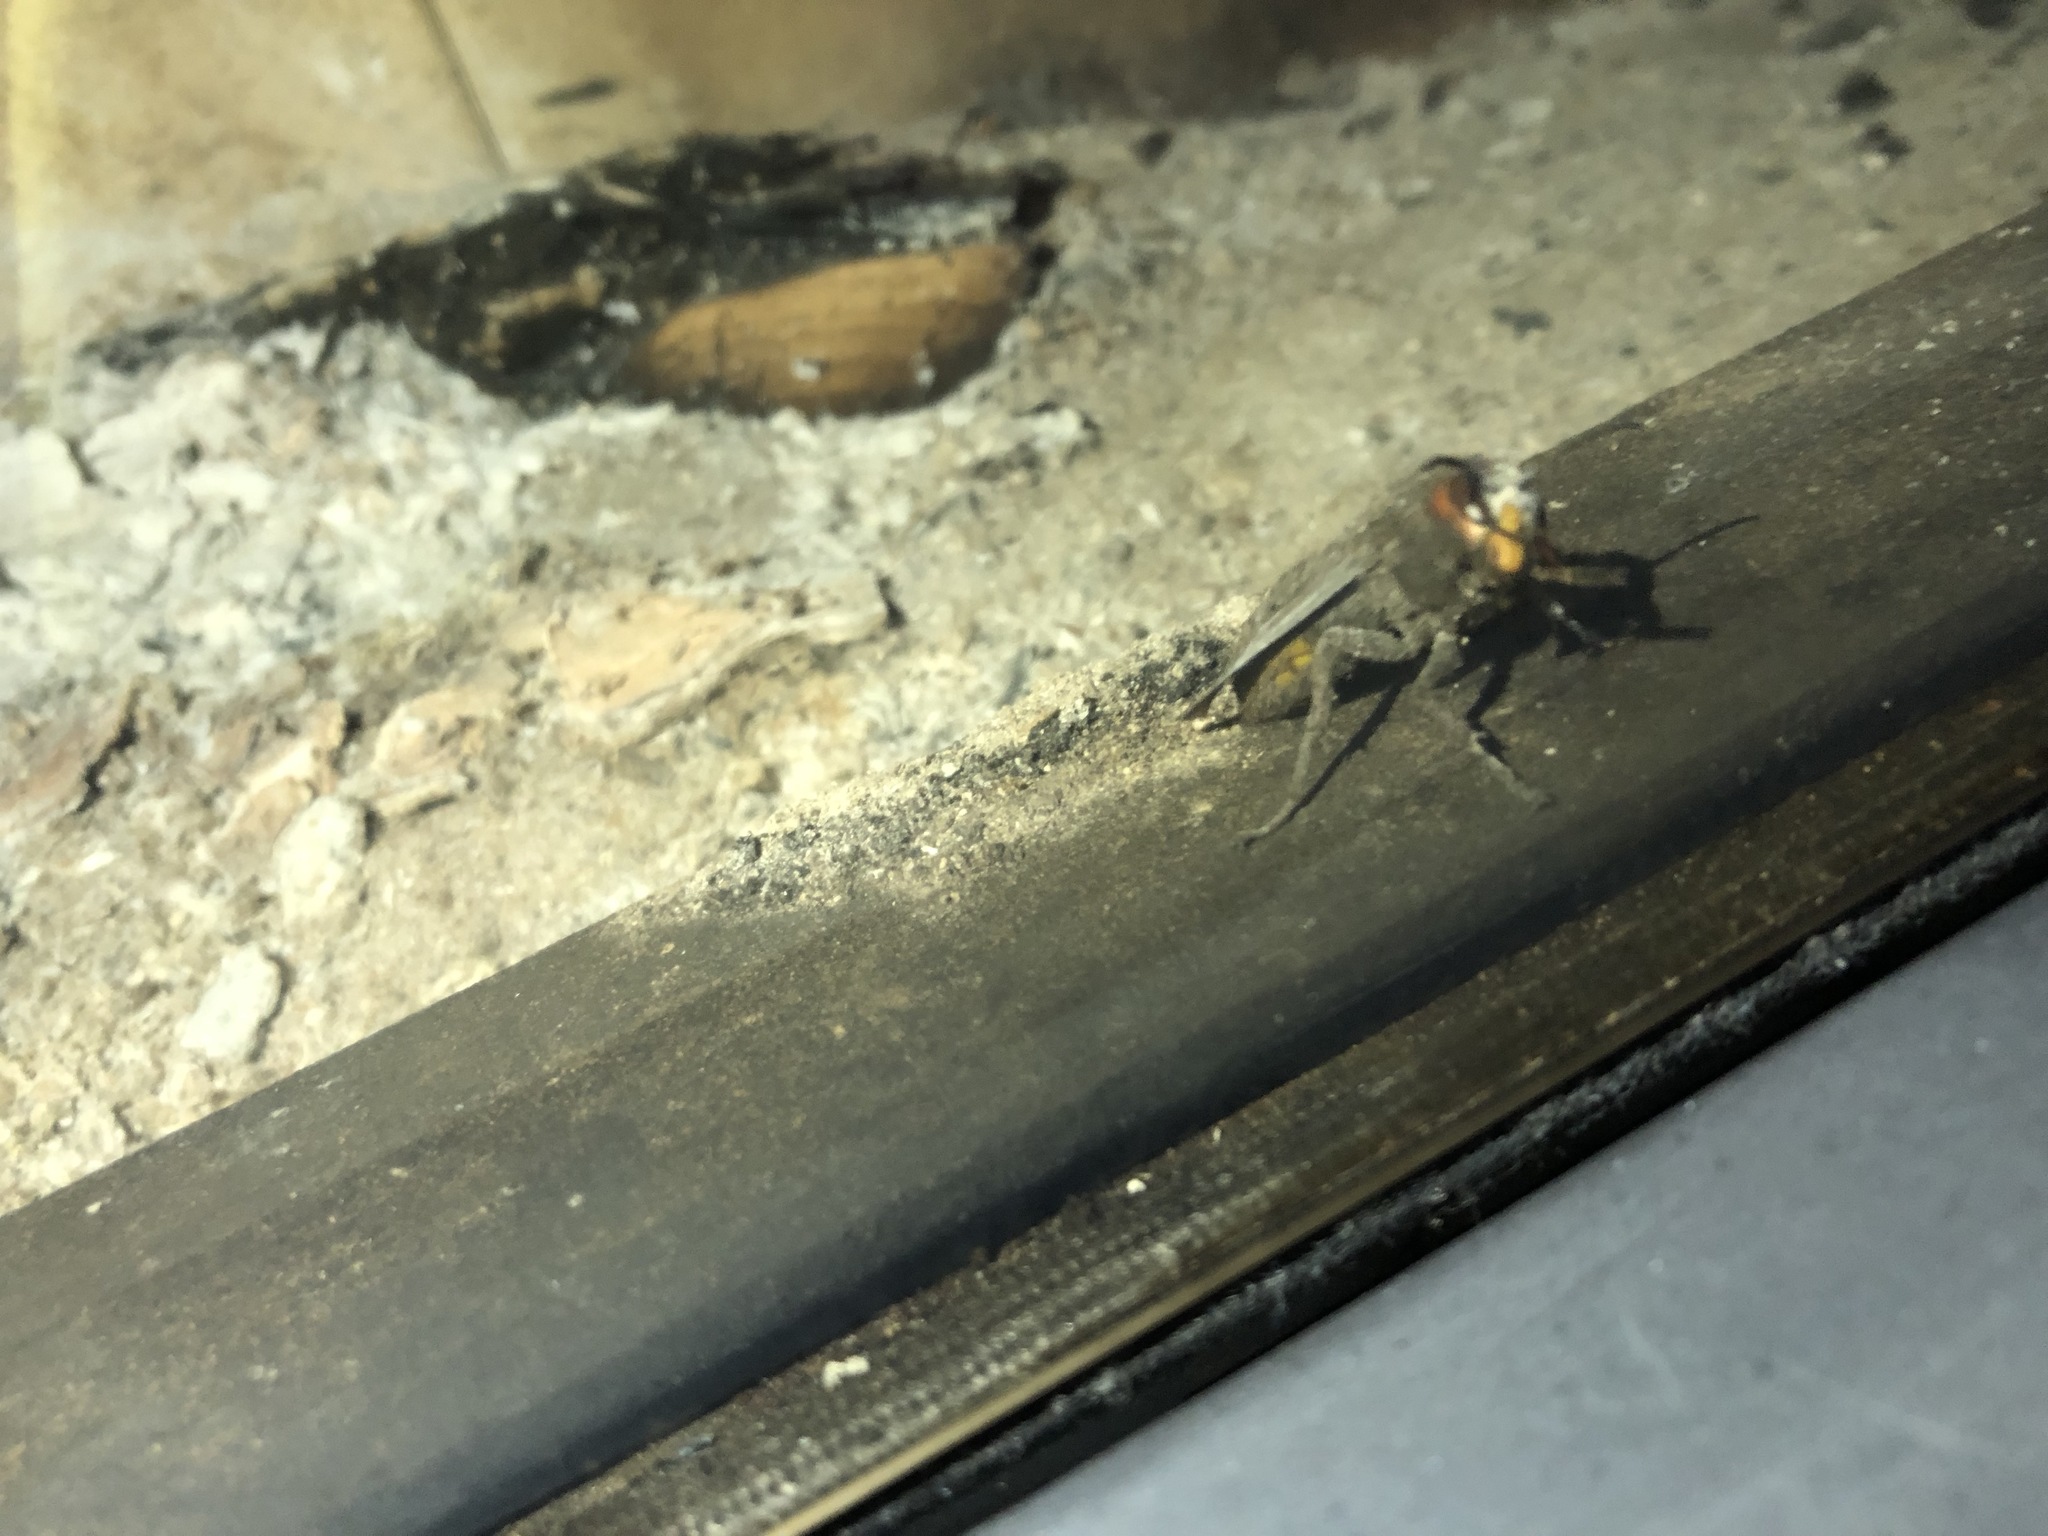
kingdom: Animalia
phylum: Arthropoda
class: Insecta
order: Hymenoptera
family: Vespidae
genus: Vespa
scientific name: Vespa crabro
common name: Hornet
